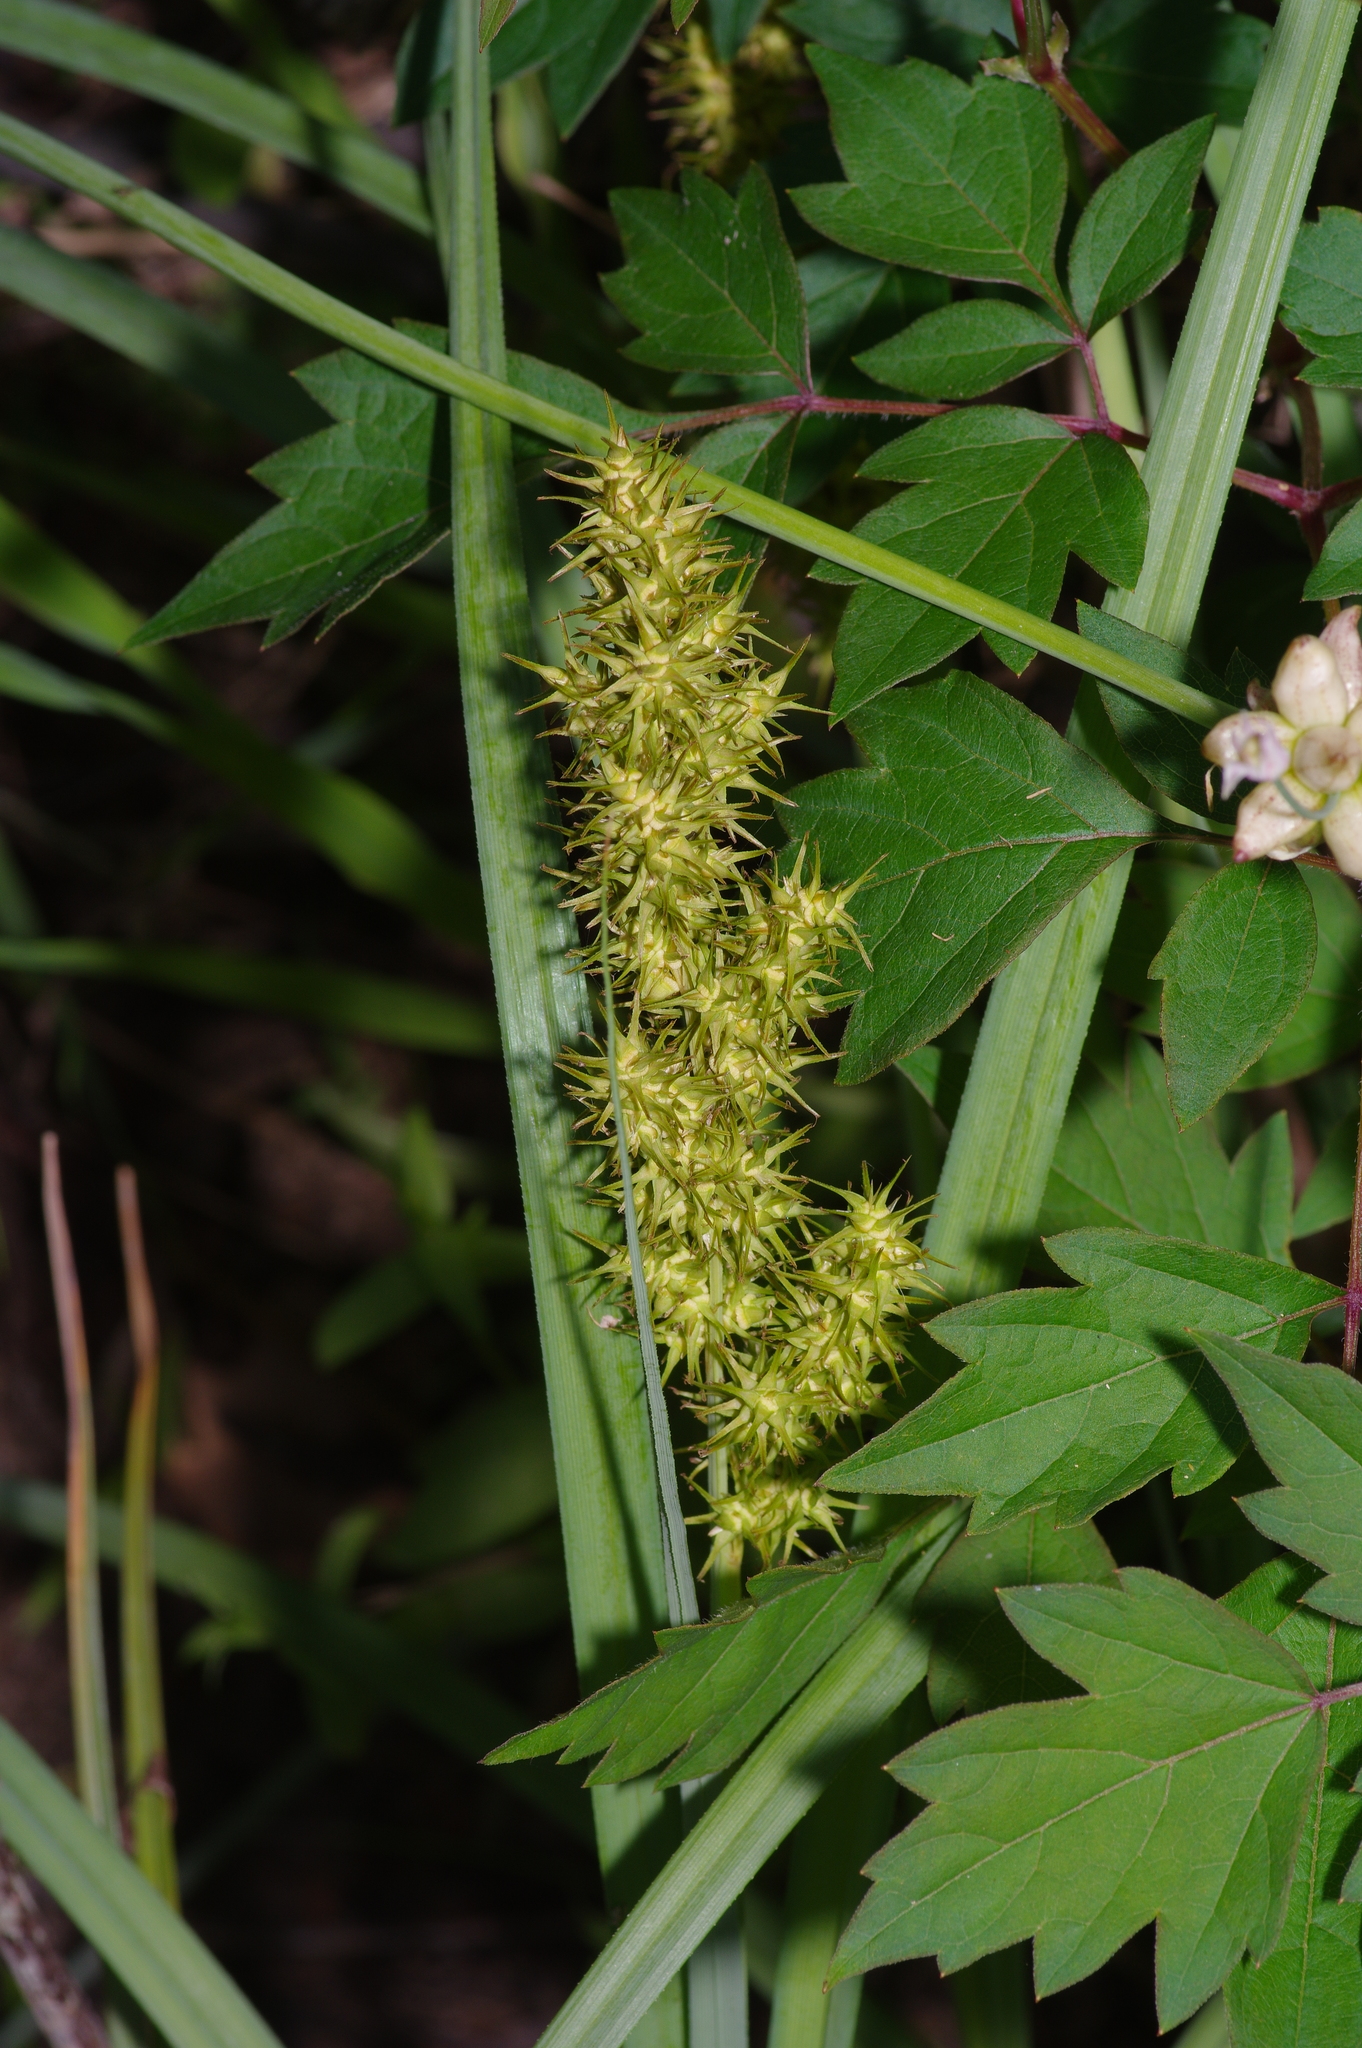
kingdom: Plantae
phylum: Tracheophyta
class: Liliopsida
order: Poales
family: Cyperaceae
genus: Carex
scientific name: Carex crus-corvi
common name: Crow-spur sedge
